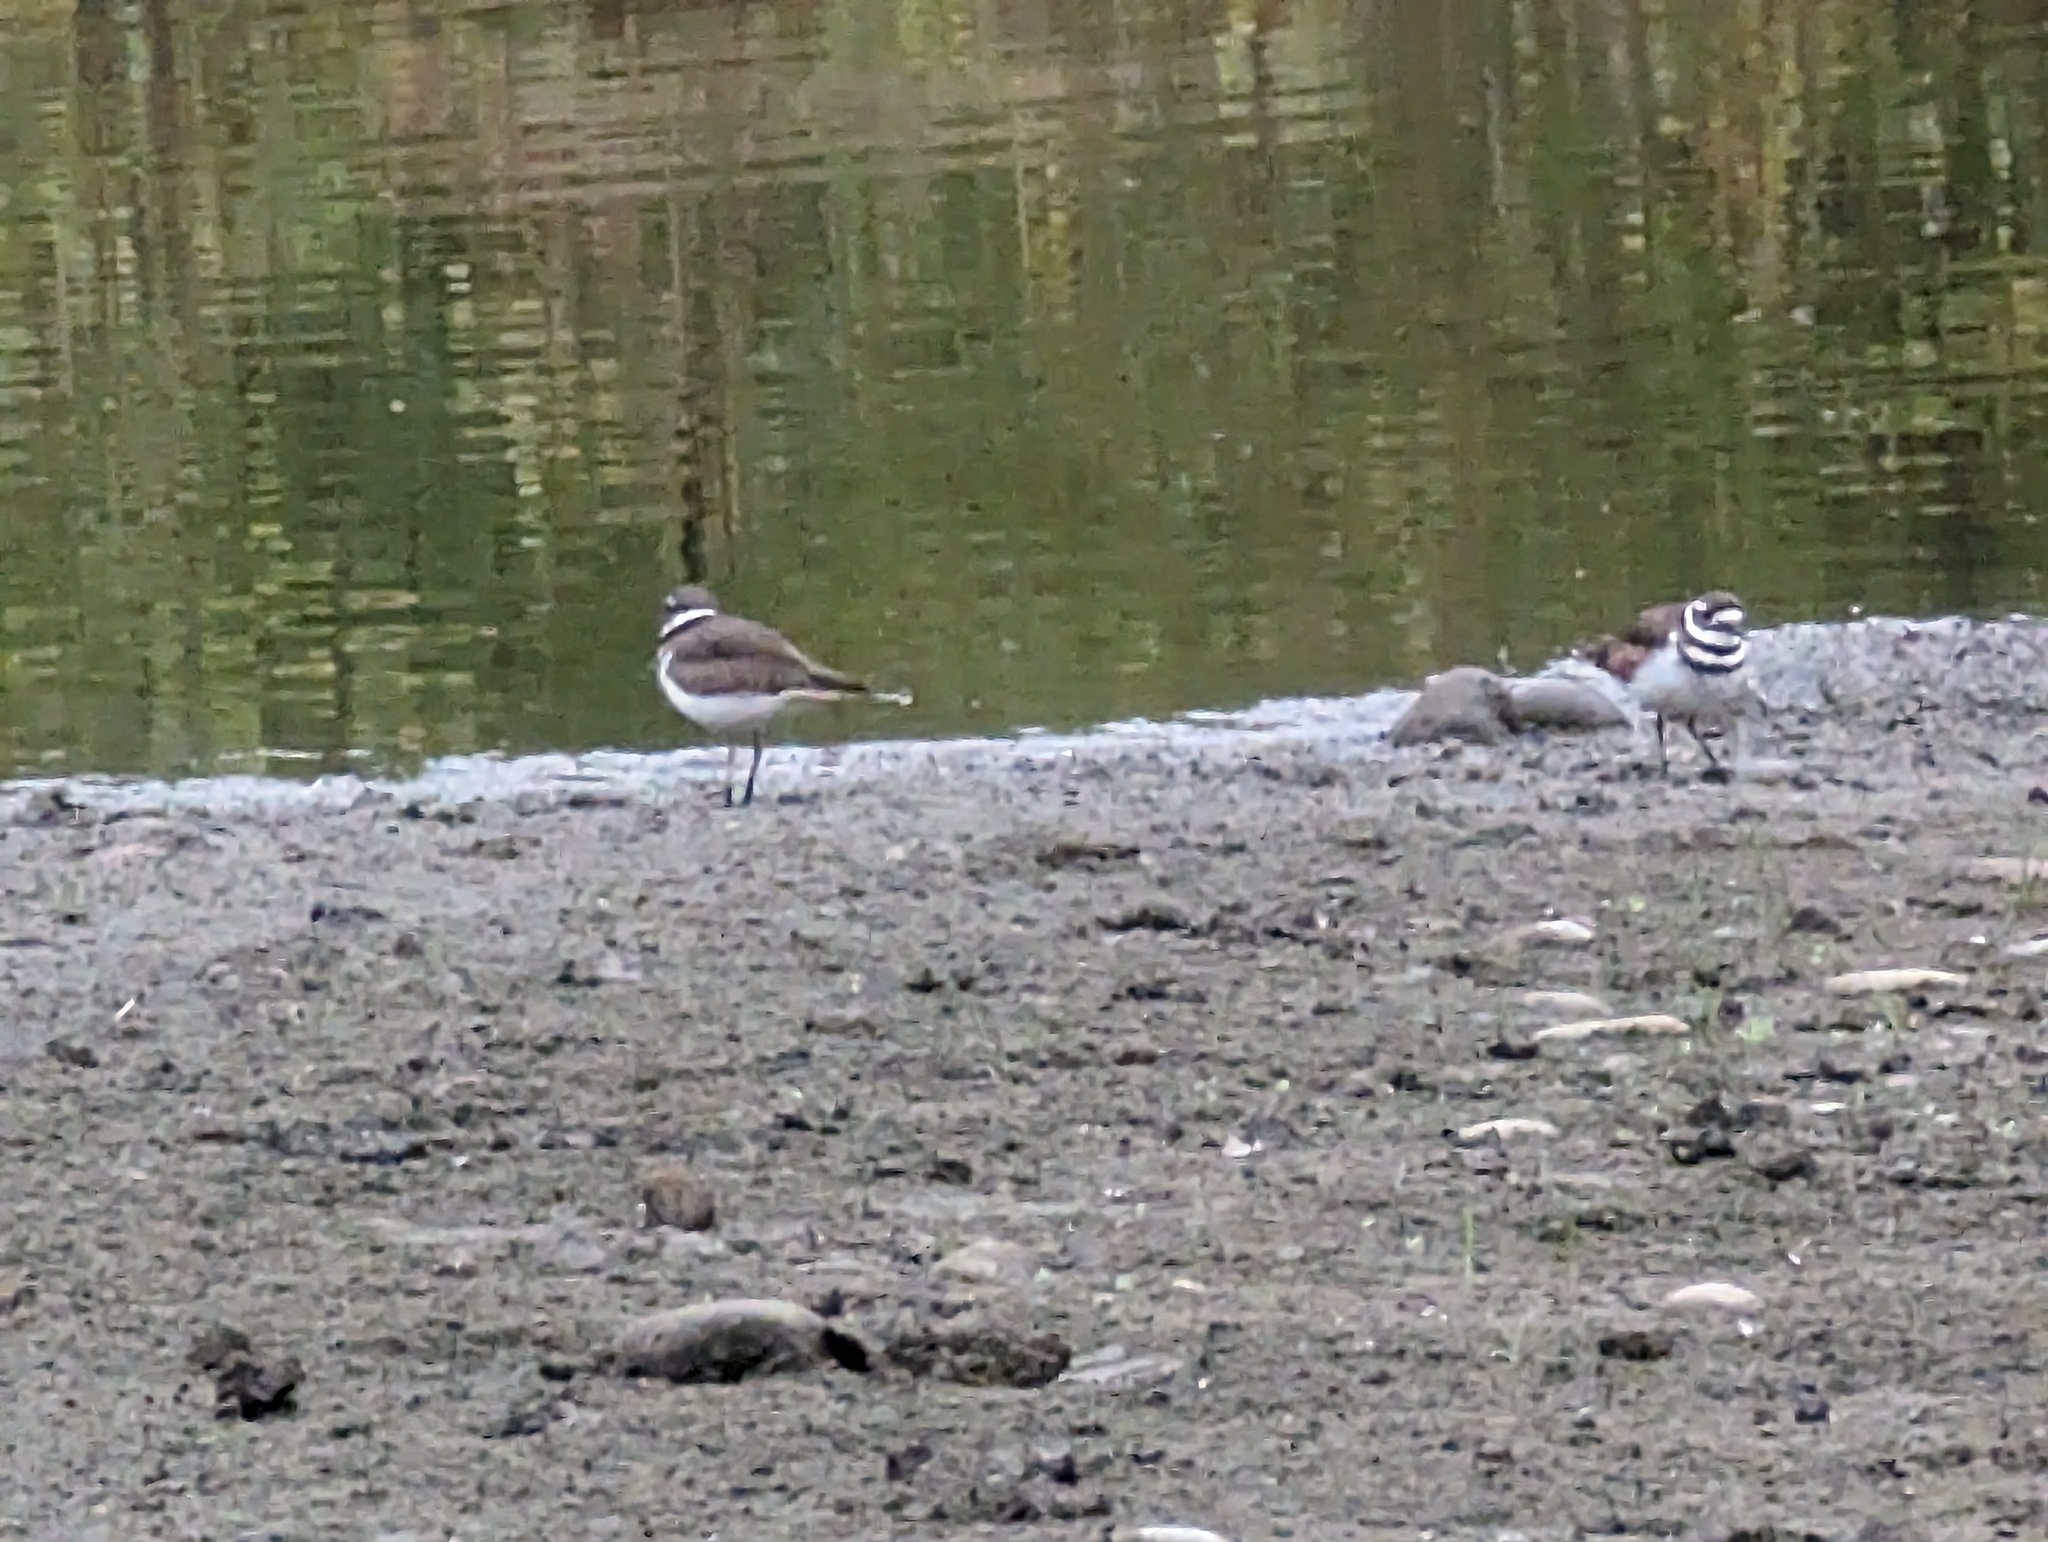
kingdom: Animalia
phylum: Chordata
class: Aves
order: Charadriiformes
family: Charadriidae
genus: Charadrius
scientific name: Charadrius vociferus
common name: Killdeer
